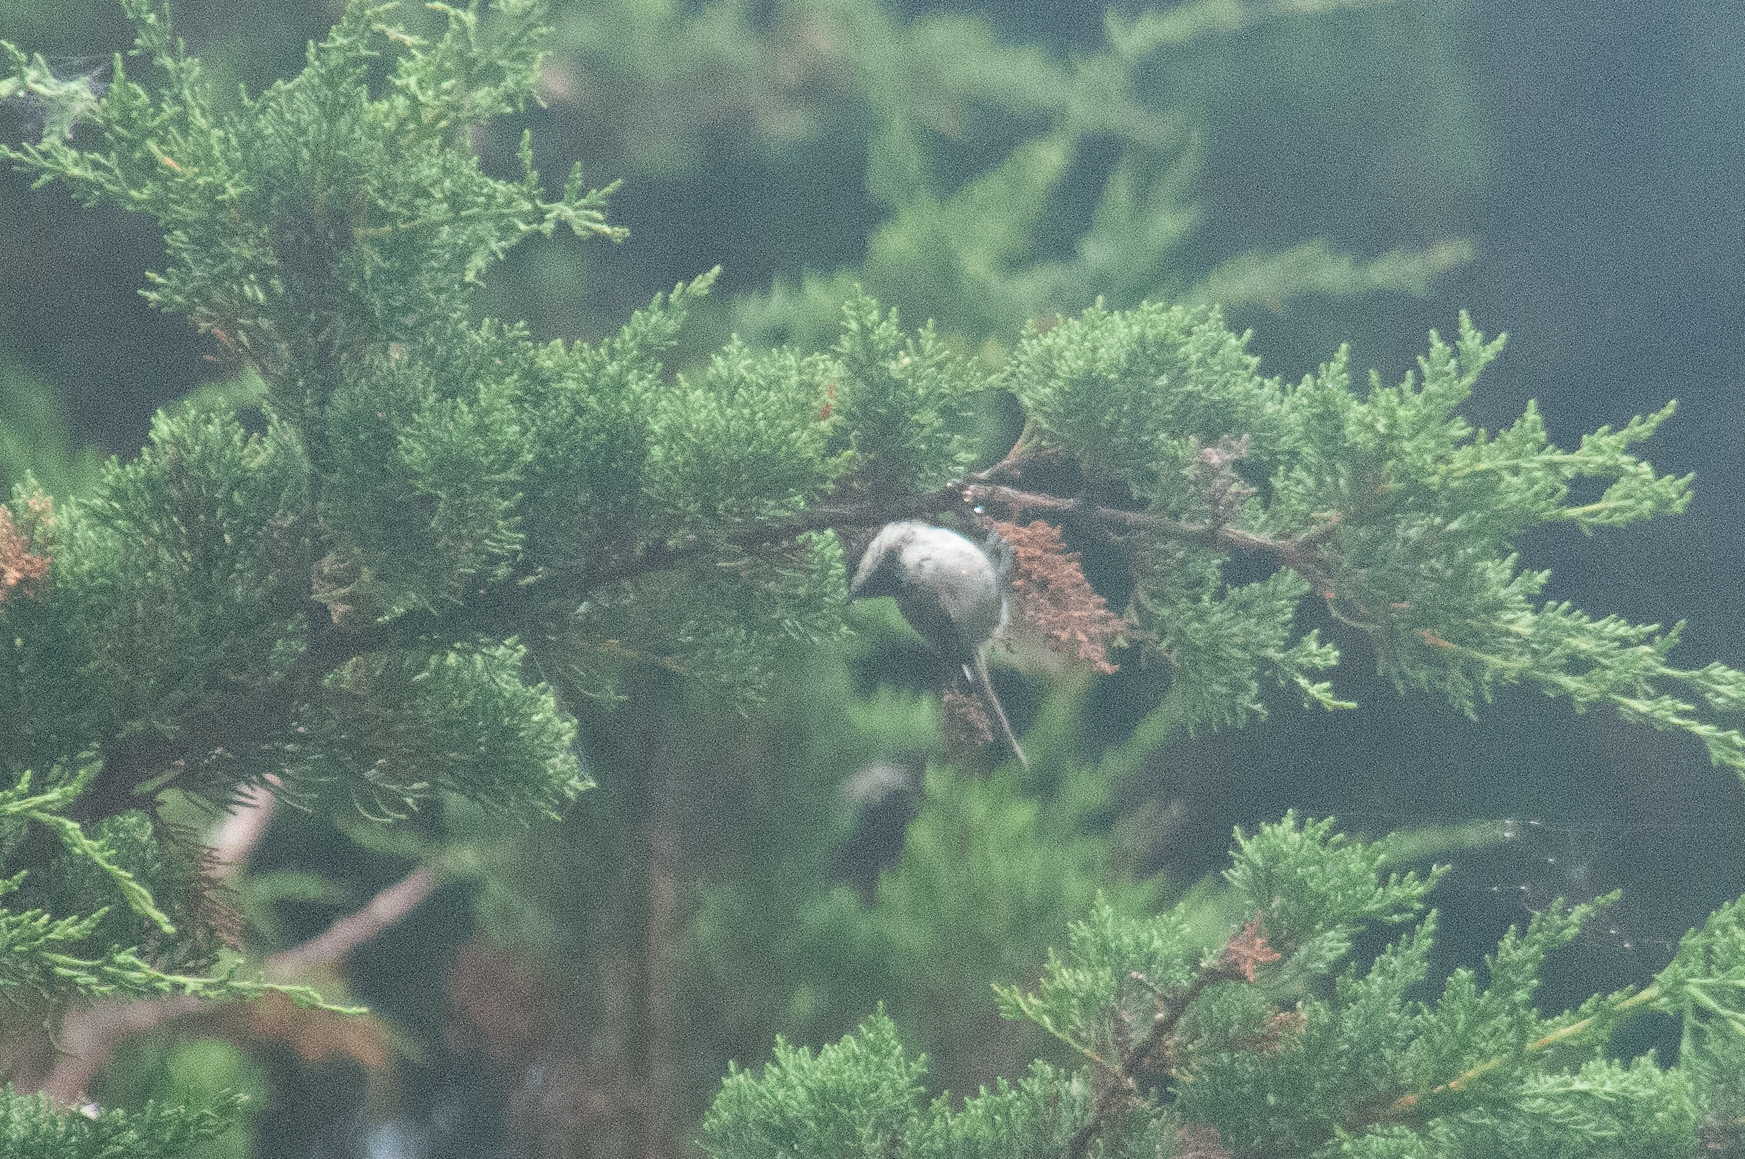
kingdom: Animalia
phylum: Chordata
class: Aves
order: Passeriformes
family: Aegithalidae
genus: Psaltriparus
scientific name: Psaltriparus minimus
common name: American bushtit
